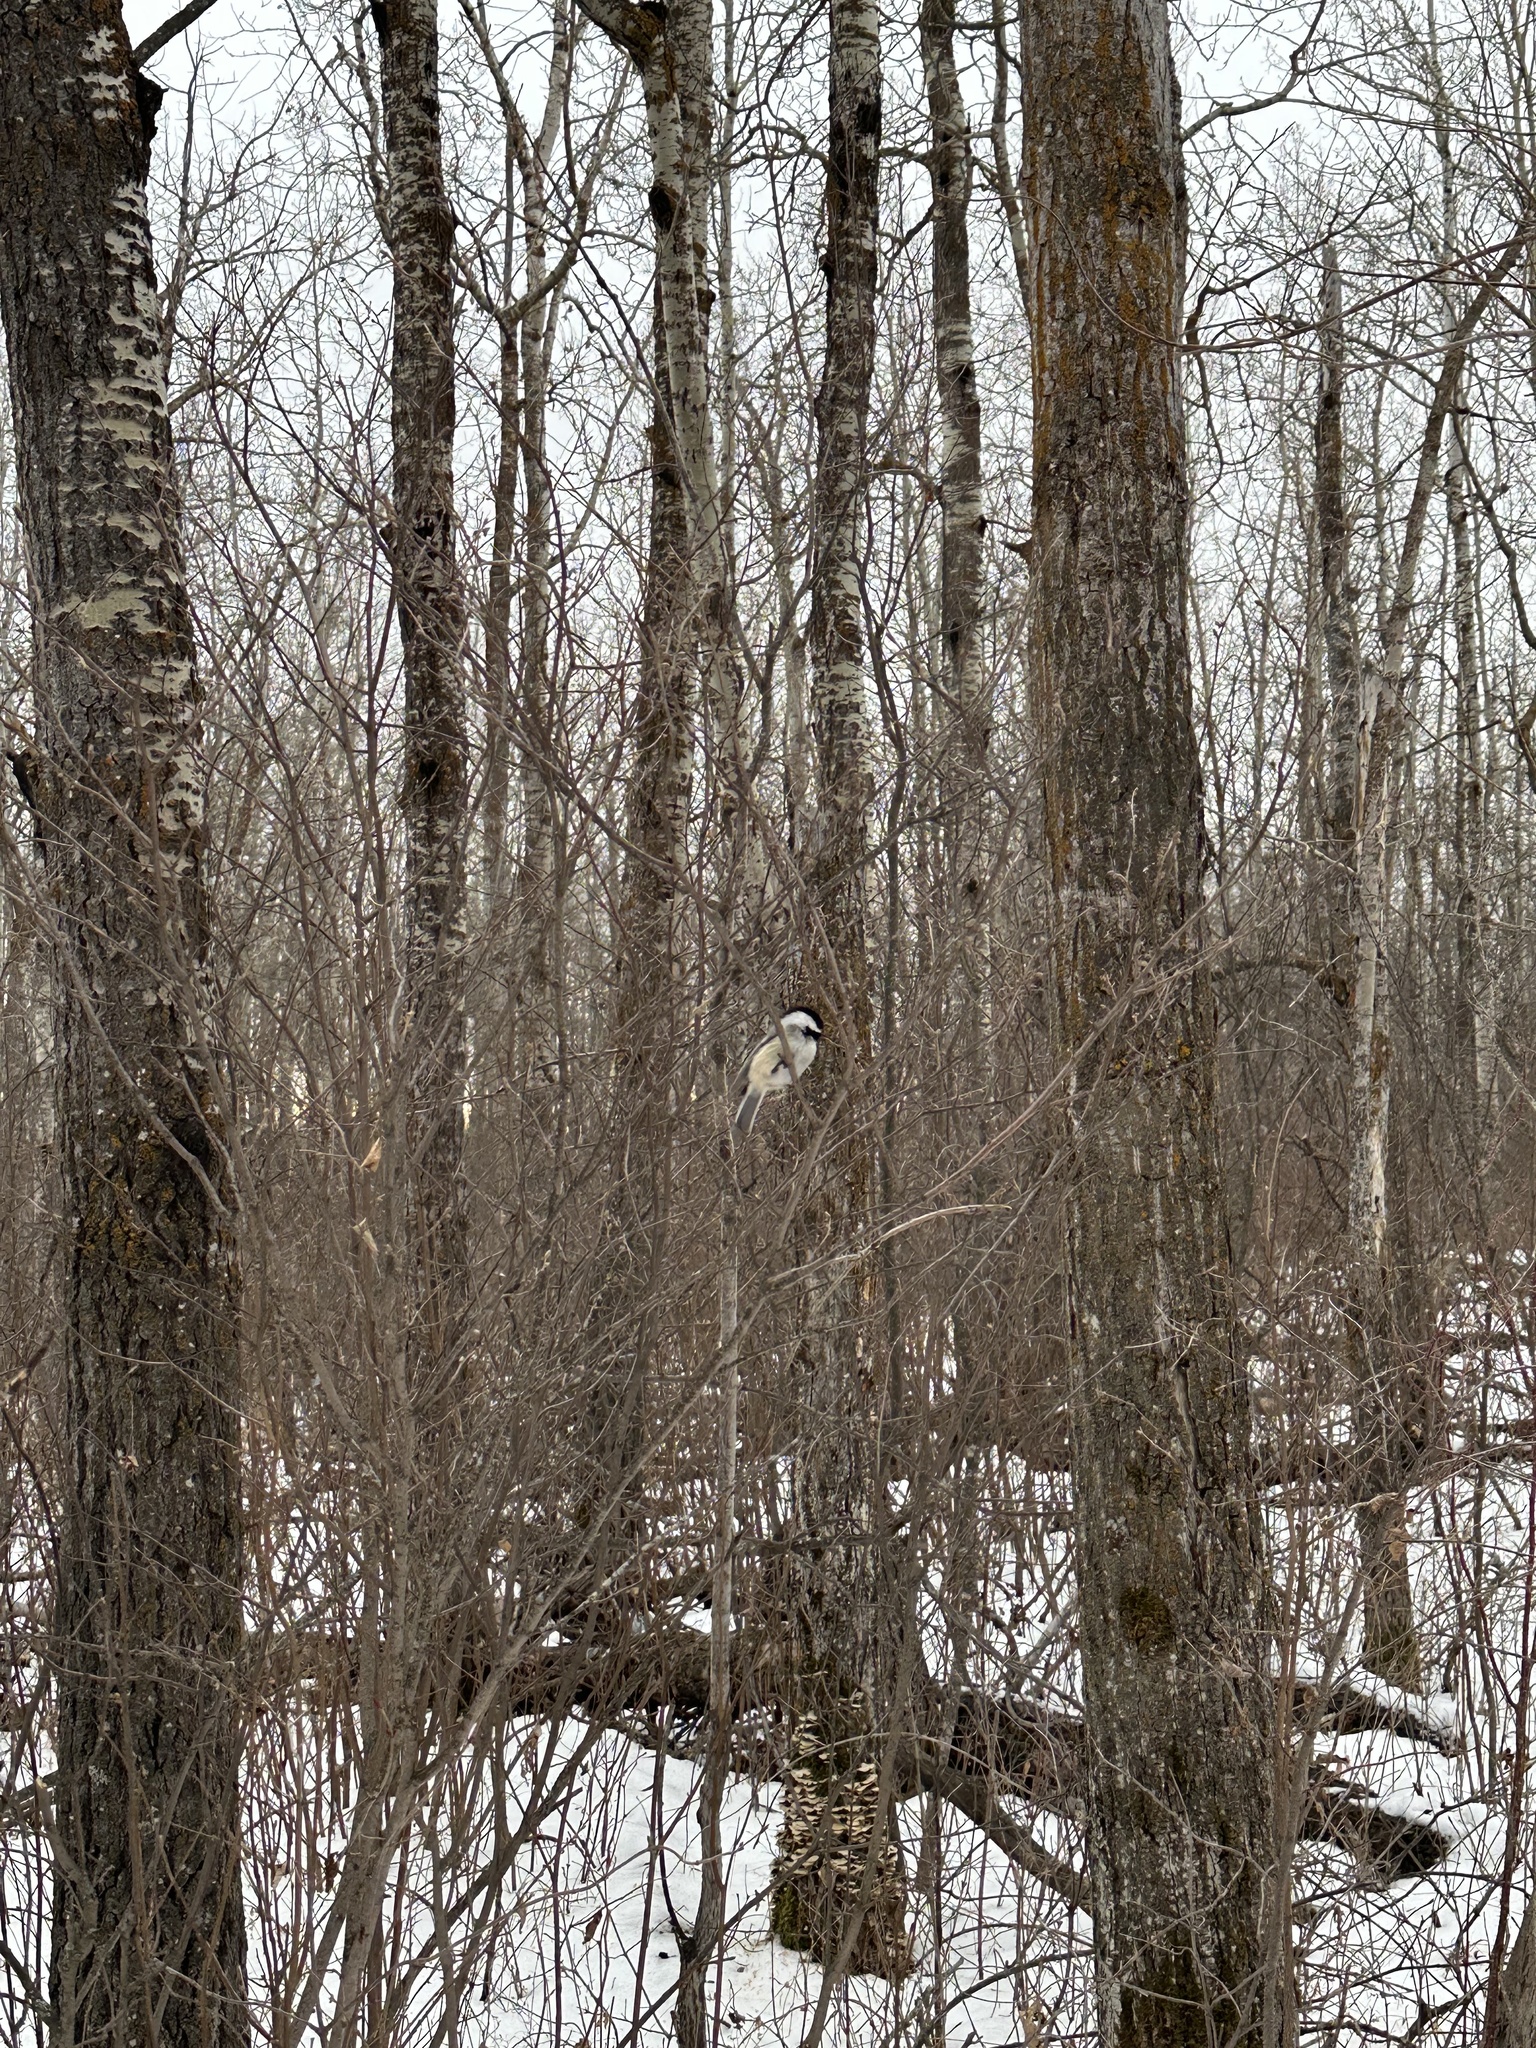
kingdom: Animalia
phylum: Chordata
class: Aves
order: Passeriformes
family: Paridae
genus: Poecile
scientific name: Poecile atricapillus
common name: Black-capped chickadee
